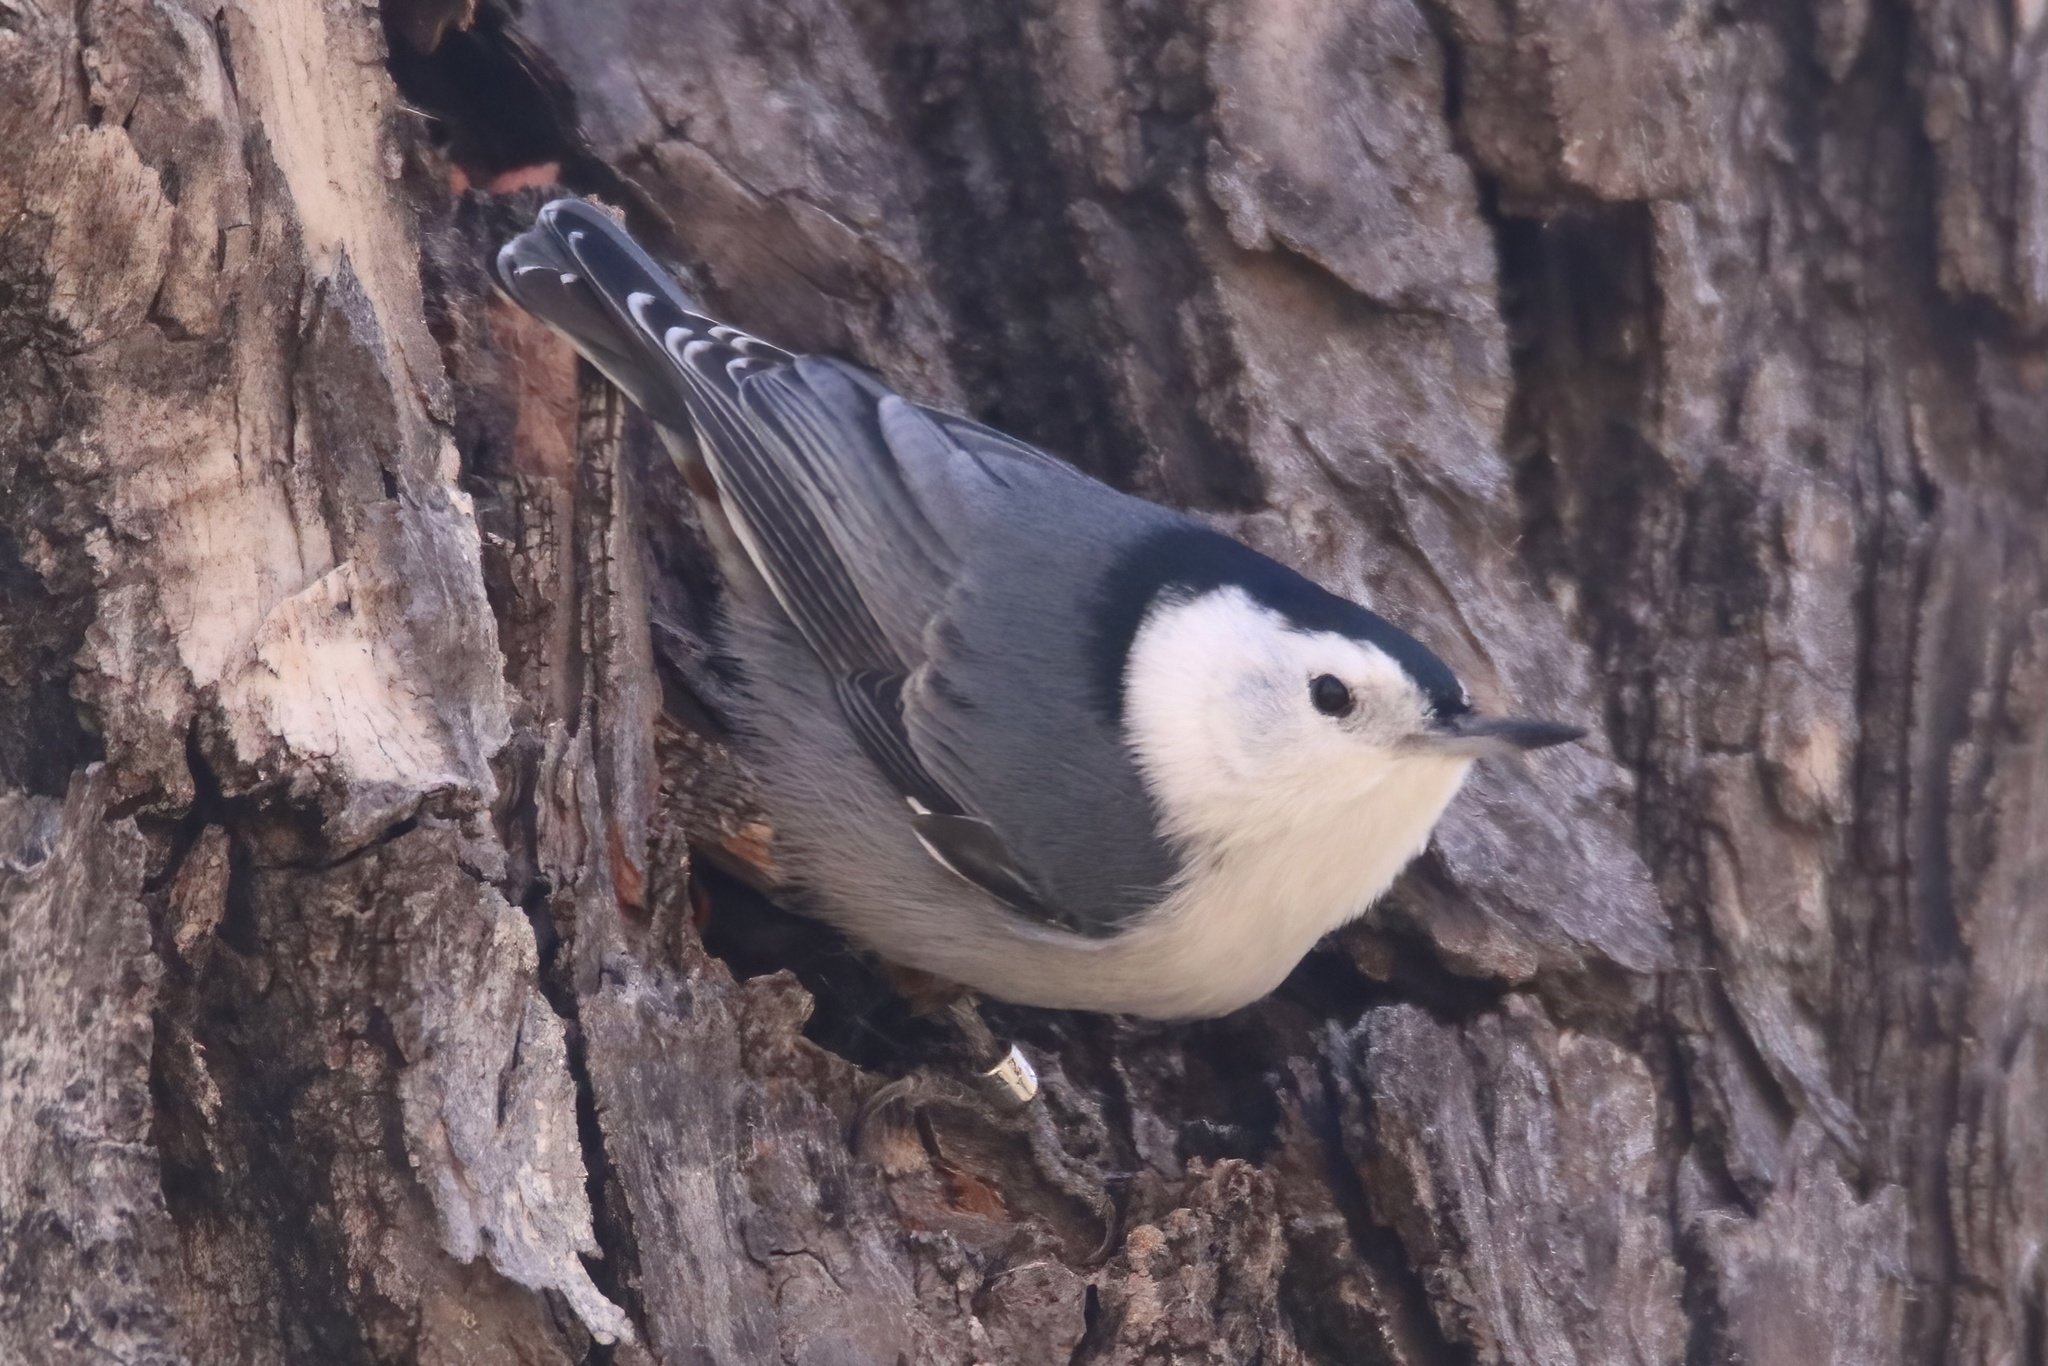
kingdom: Animalia
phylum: Chordata
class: Aves
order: Passeriformes
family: Sittidae
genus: Sitta
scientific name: Sitta carolinensis
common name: White-breasted nuthatch
